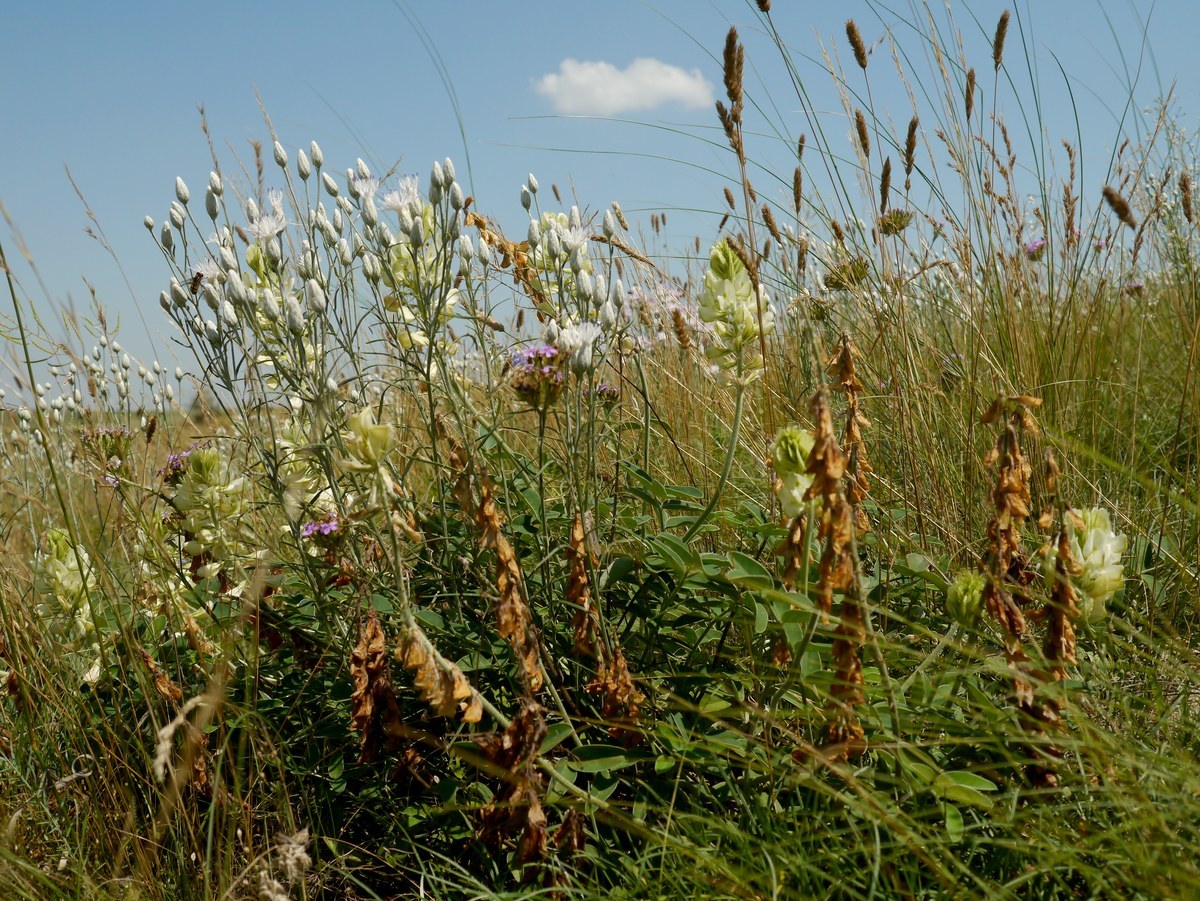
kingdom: Plantae
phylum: Tracheophyta
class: Magnoliopsida
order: Fabales
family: Fabaceae
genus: Hedysarum
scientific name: Hedysarum grandiflorum
